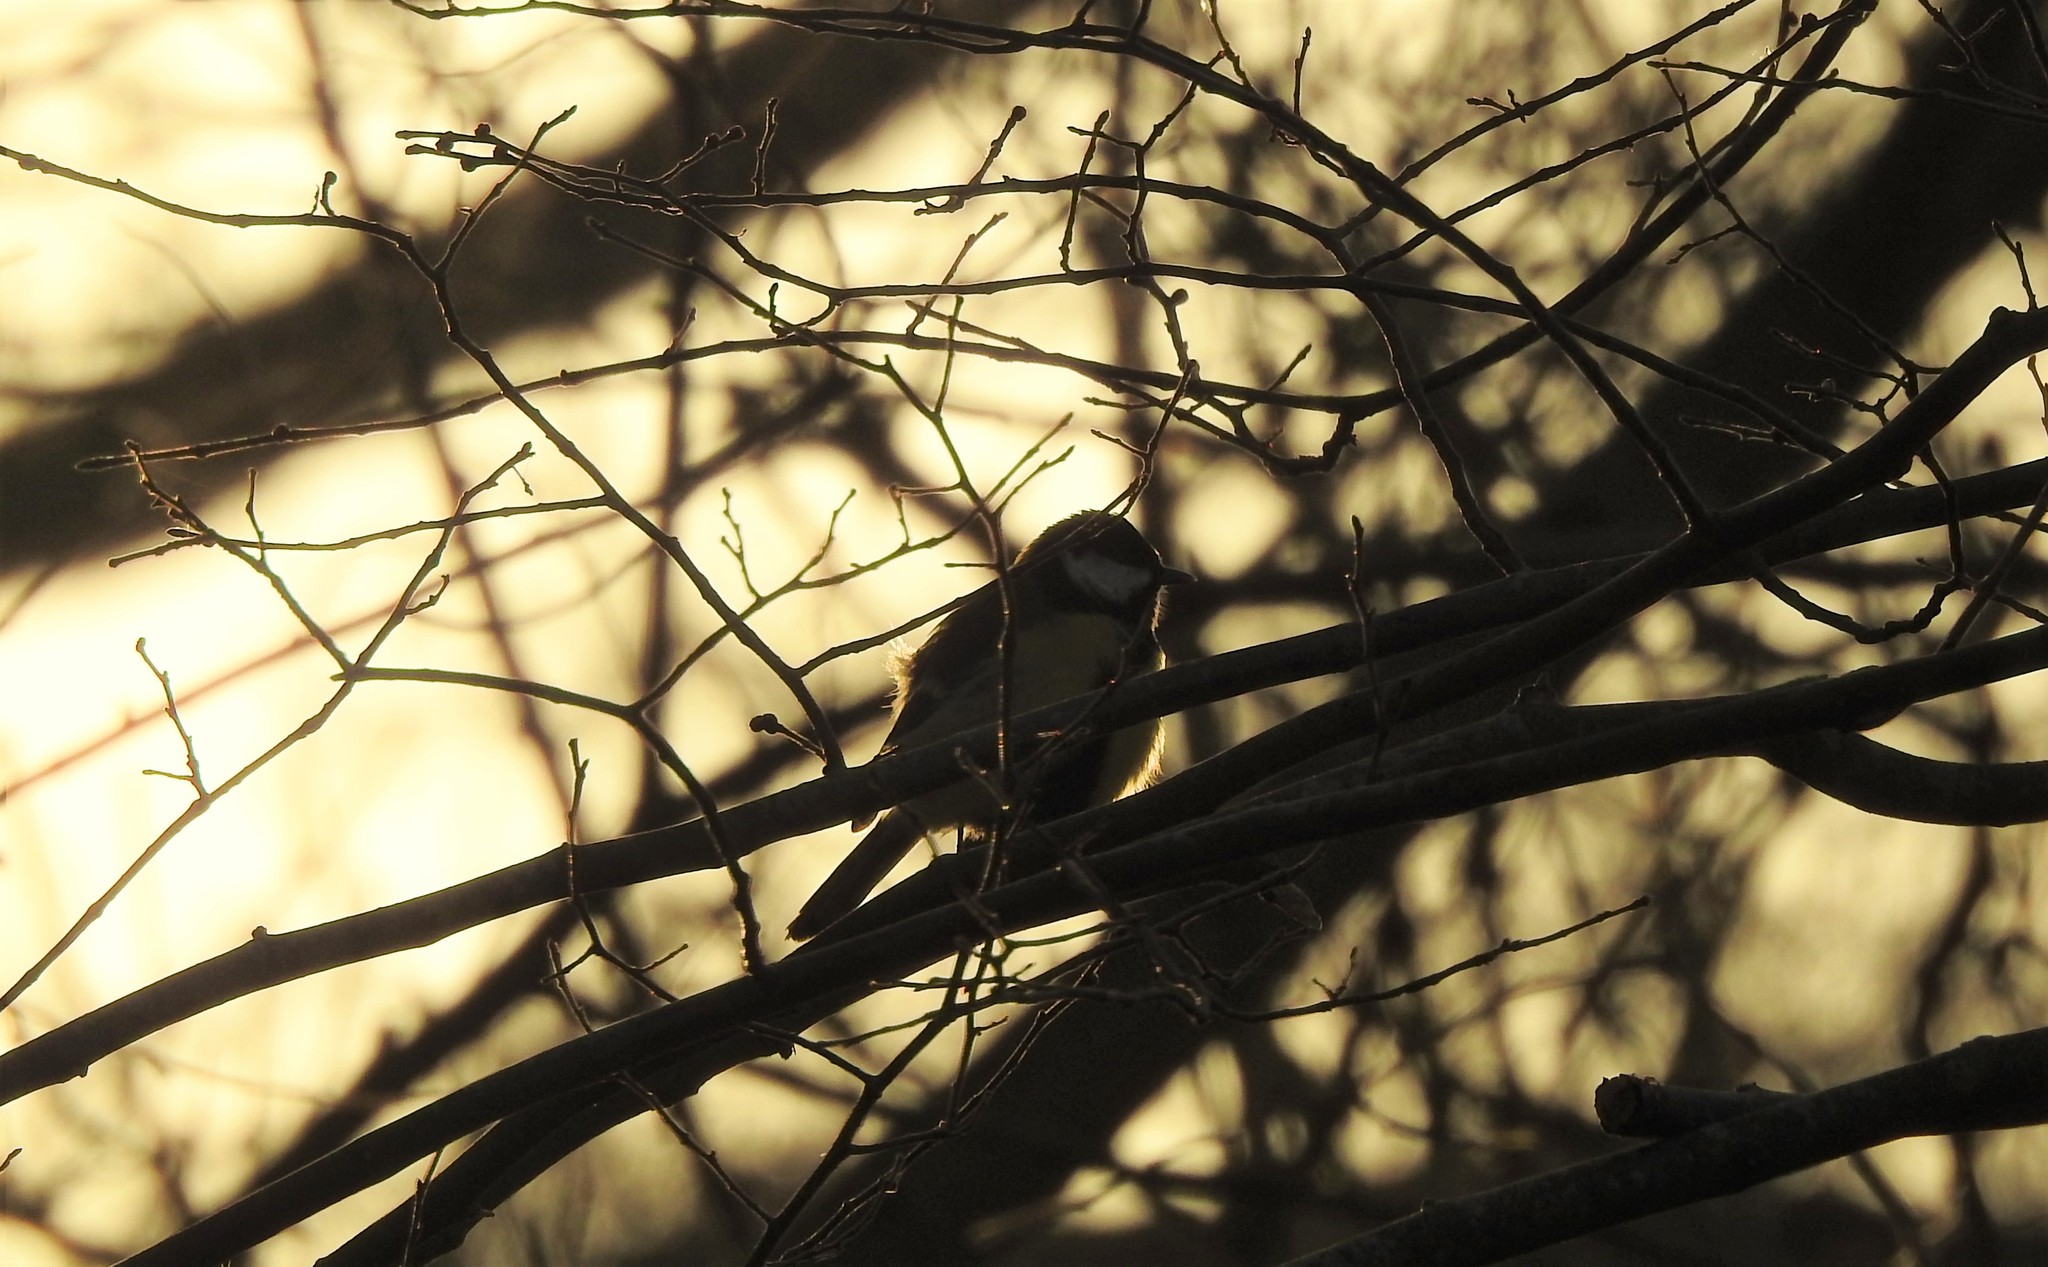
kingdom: Animalia
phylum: Chordata
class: Aves
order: Passeriformes
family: Paridae
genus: Parus
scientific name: Parus major
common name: Great tit
